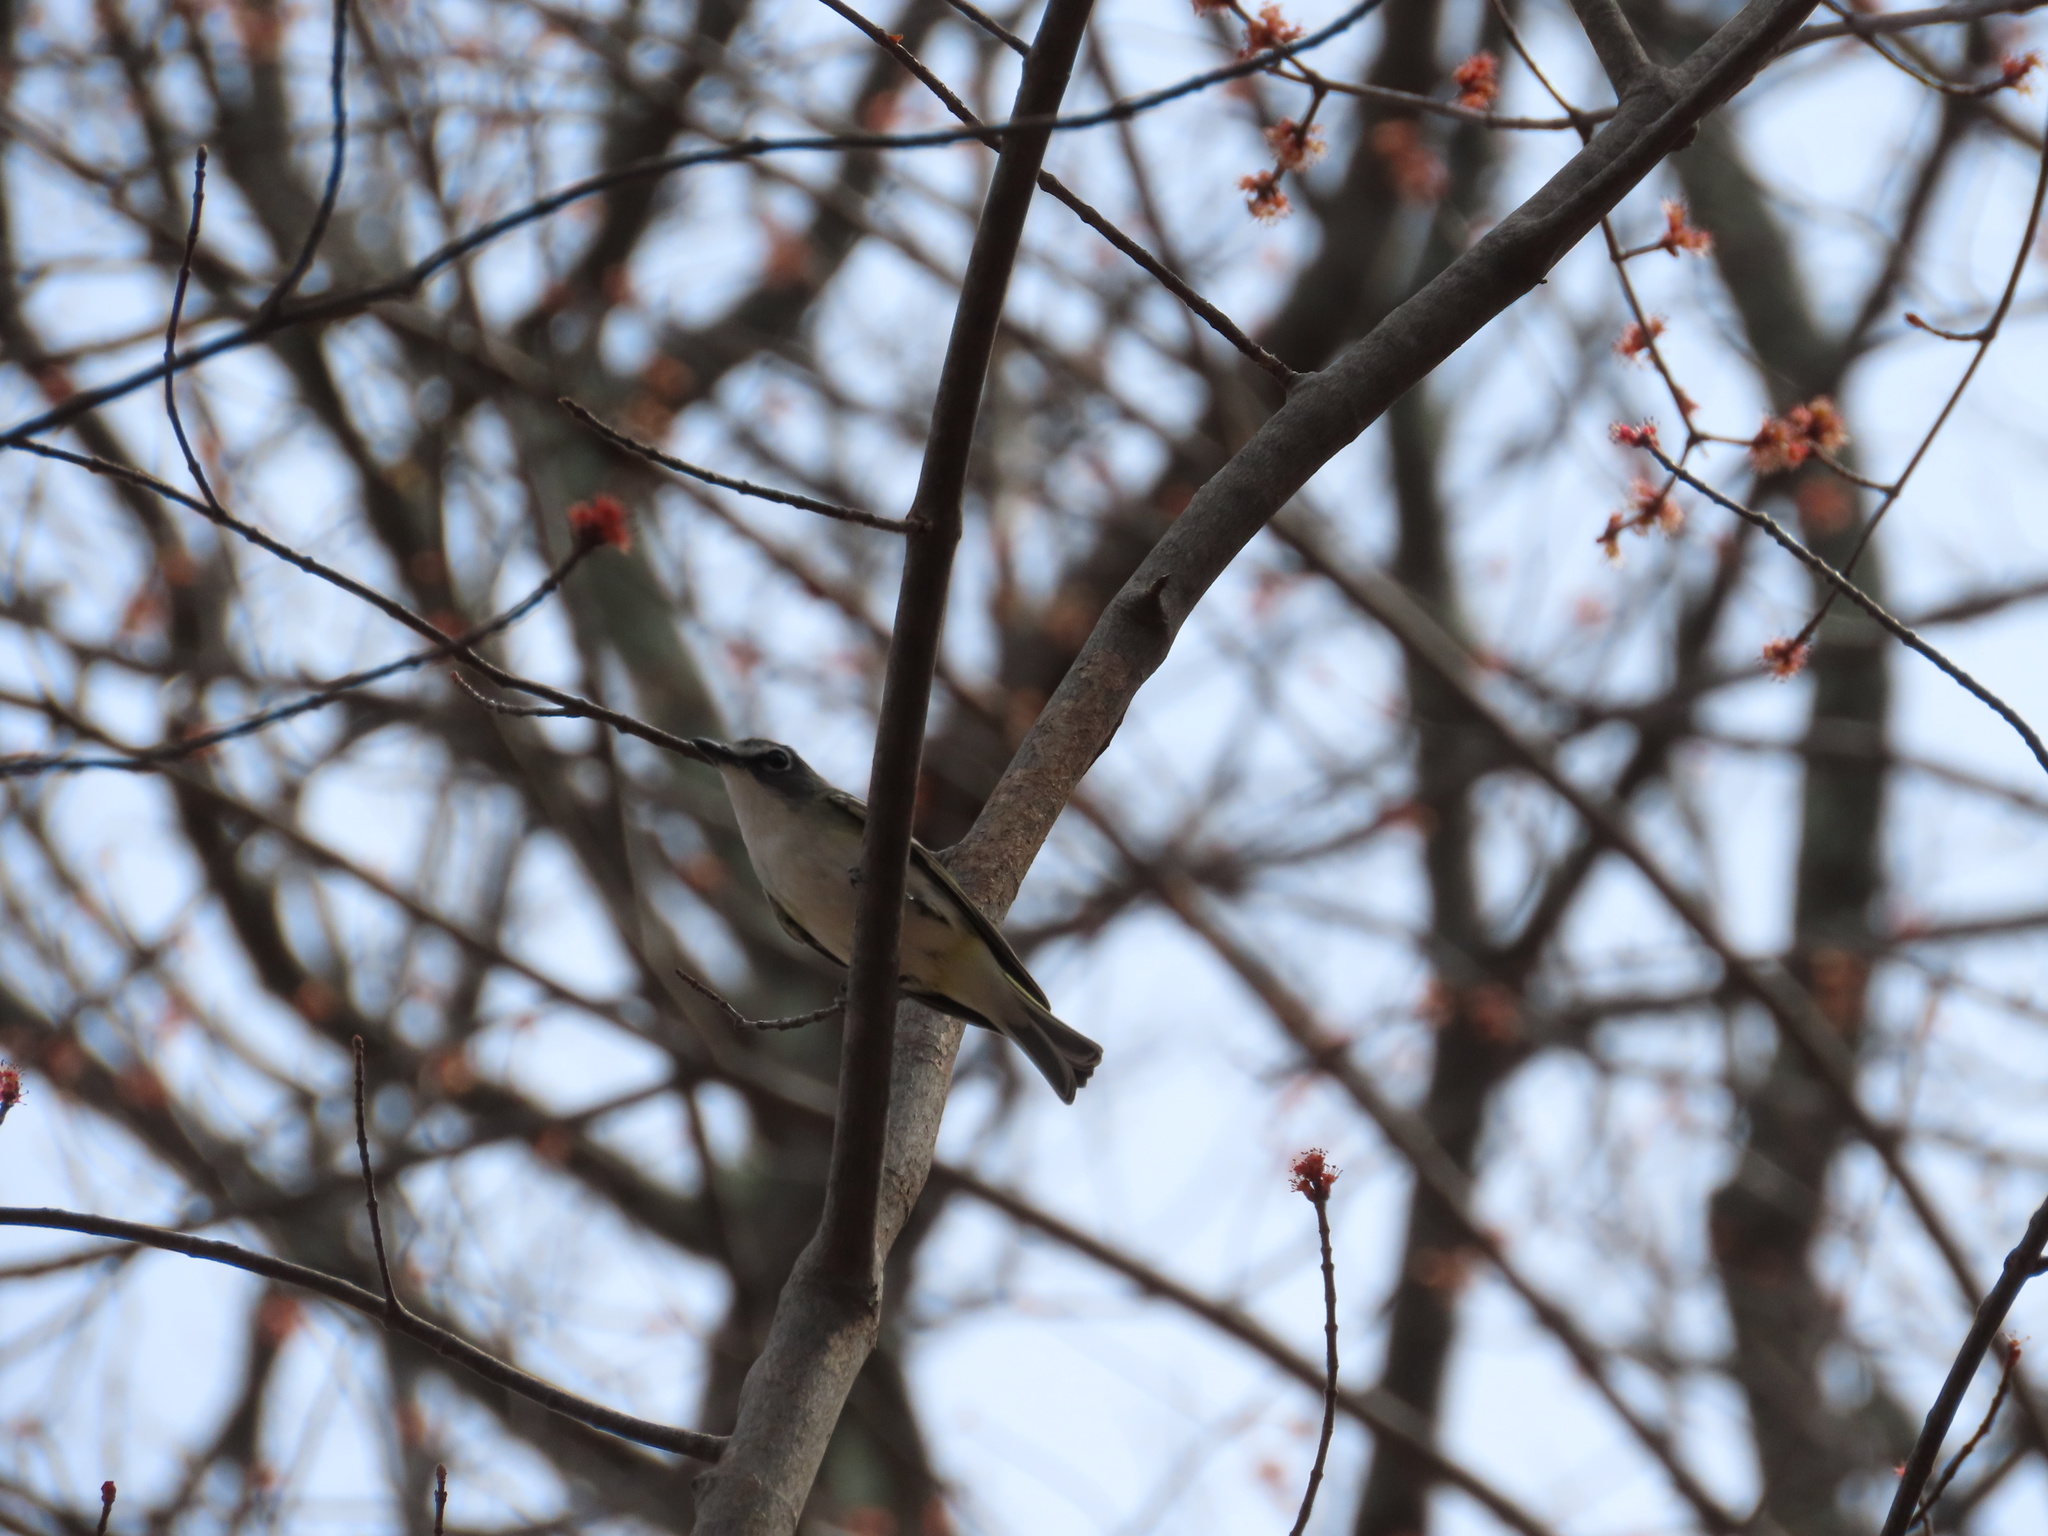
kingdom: Animalia
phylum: Chordata
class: Aves
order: Passeriformes
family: Vireonidae
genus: Vireo
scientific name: Vireo solitarius
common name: Blue-headed vireo
